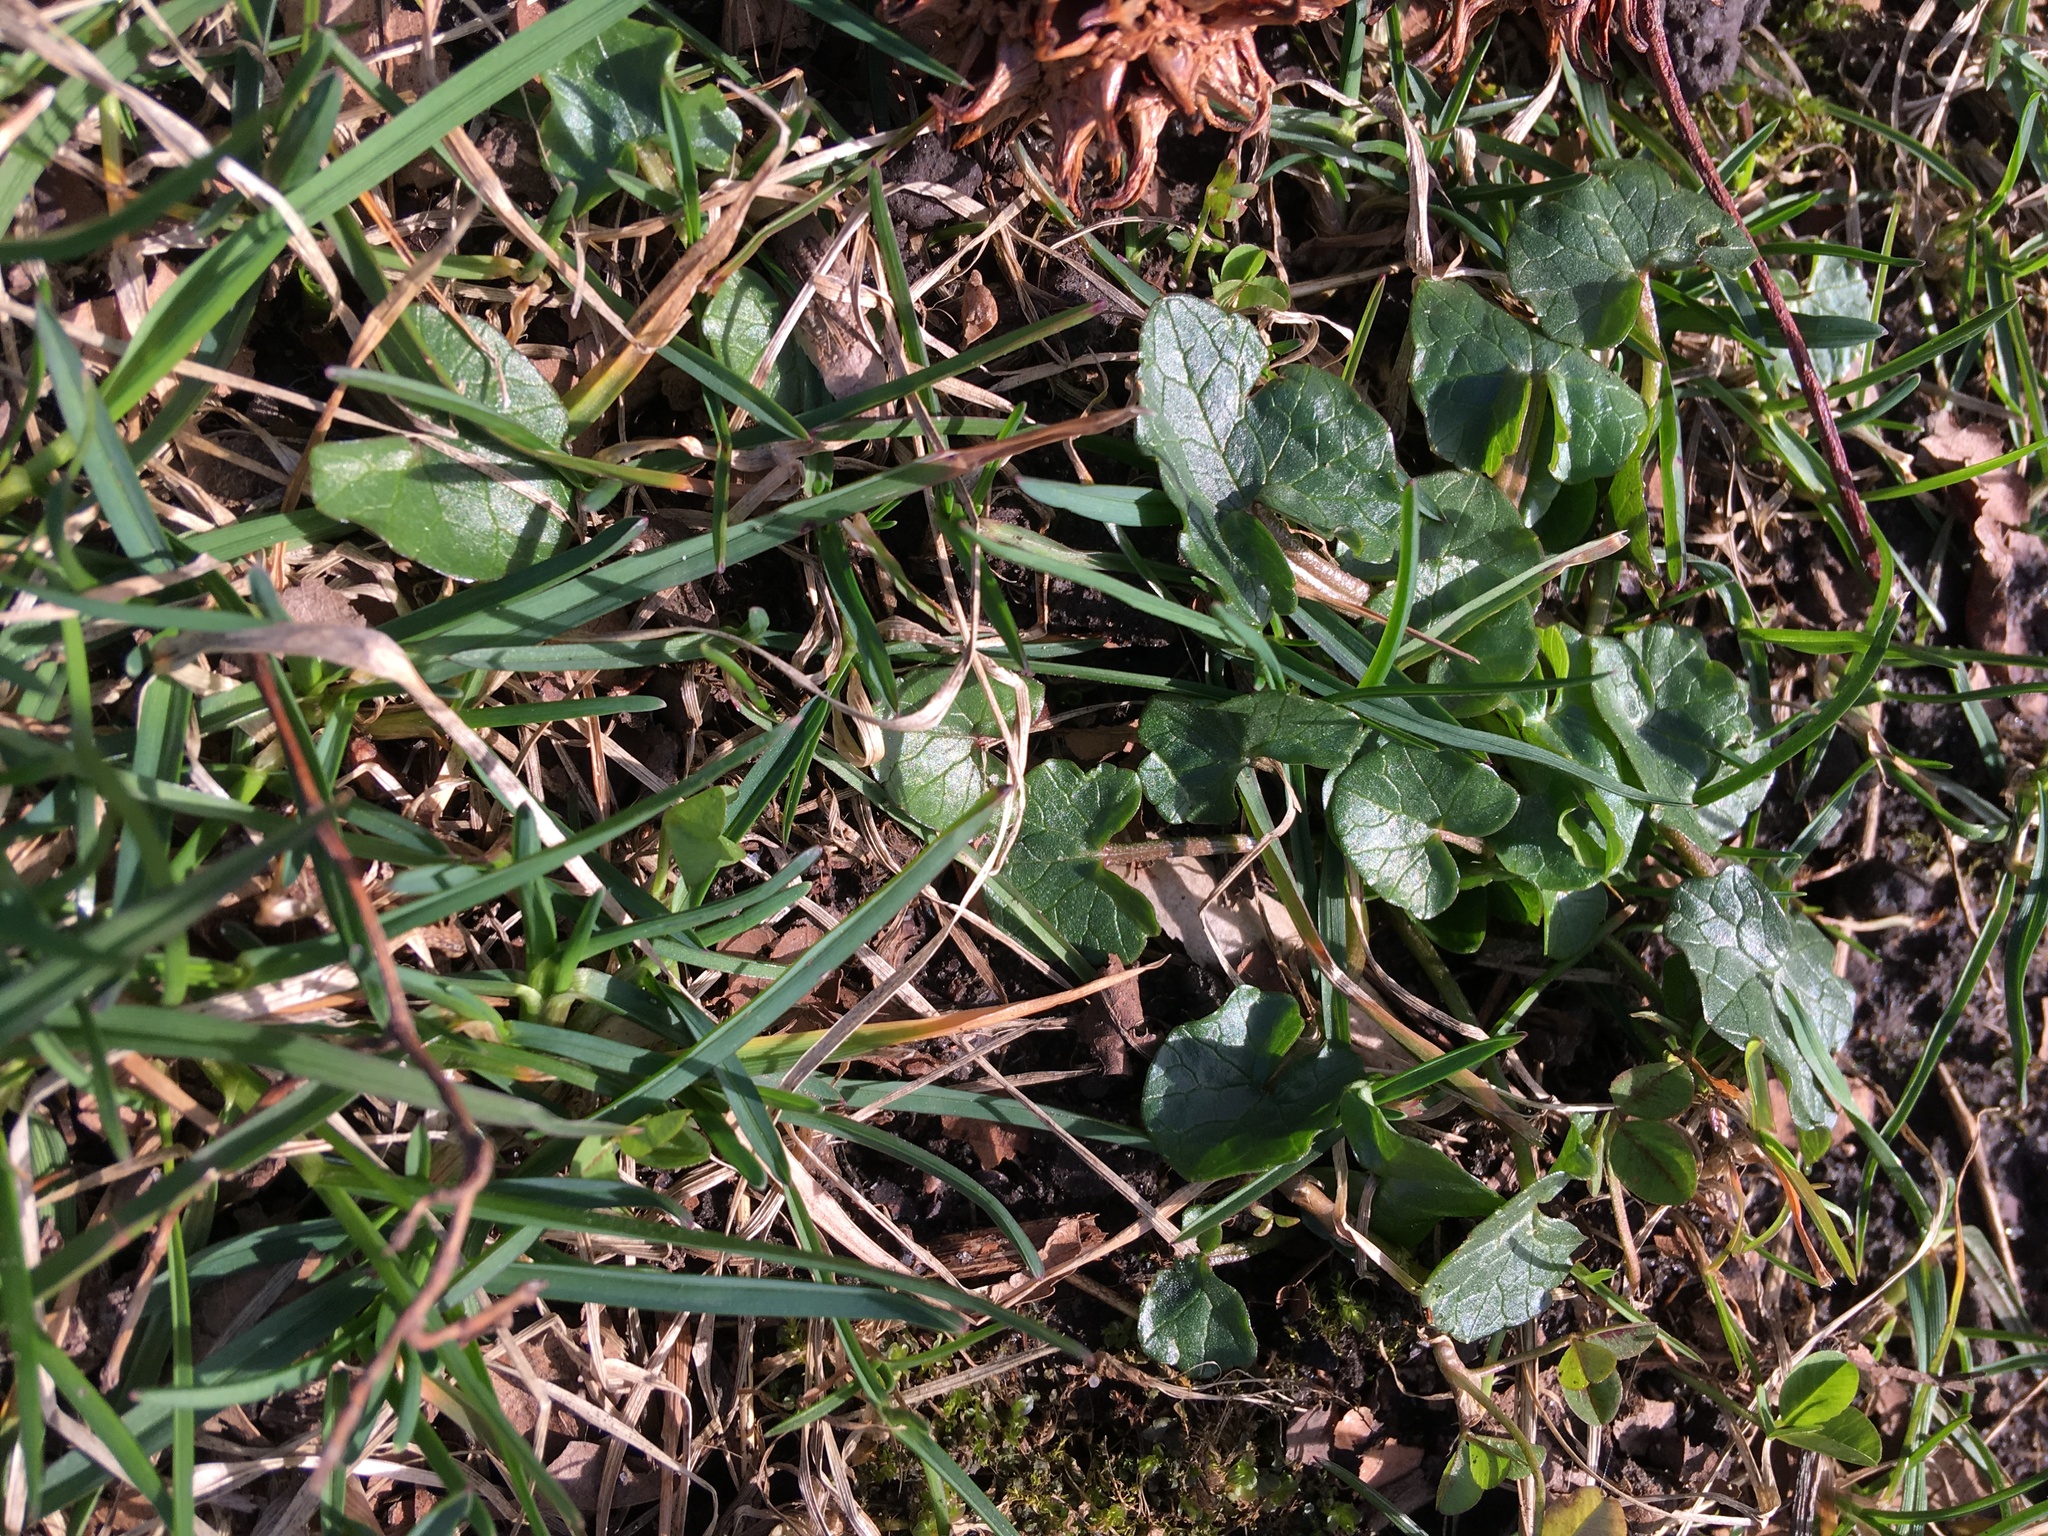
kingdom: Plantae
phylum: Tracheophyta
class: Magnoliopsida
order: Ranunculales
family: Ranunculaceae
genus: Ficaria
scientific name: Ficaria verna
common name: Lesser celandine
